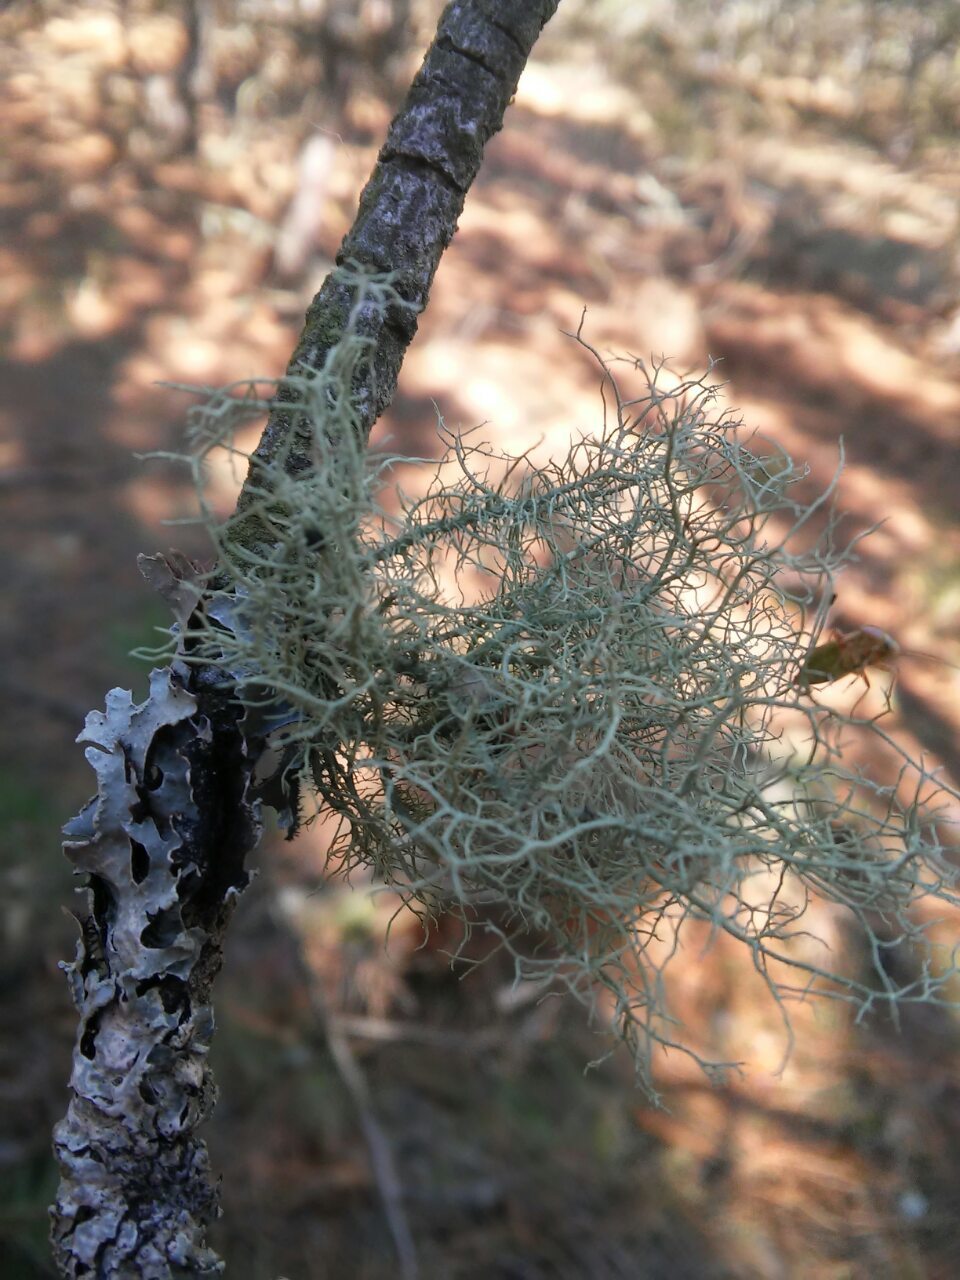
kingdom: Fungi
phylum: Ascomycota
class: Lecanoromycetes
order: Lecanorales
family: Parmeliaceae
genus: Usnea
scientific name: Usnea hirta
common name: Bristly beard lichen
